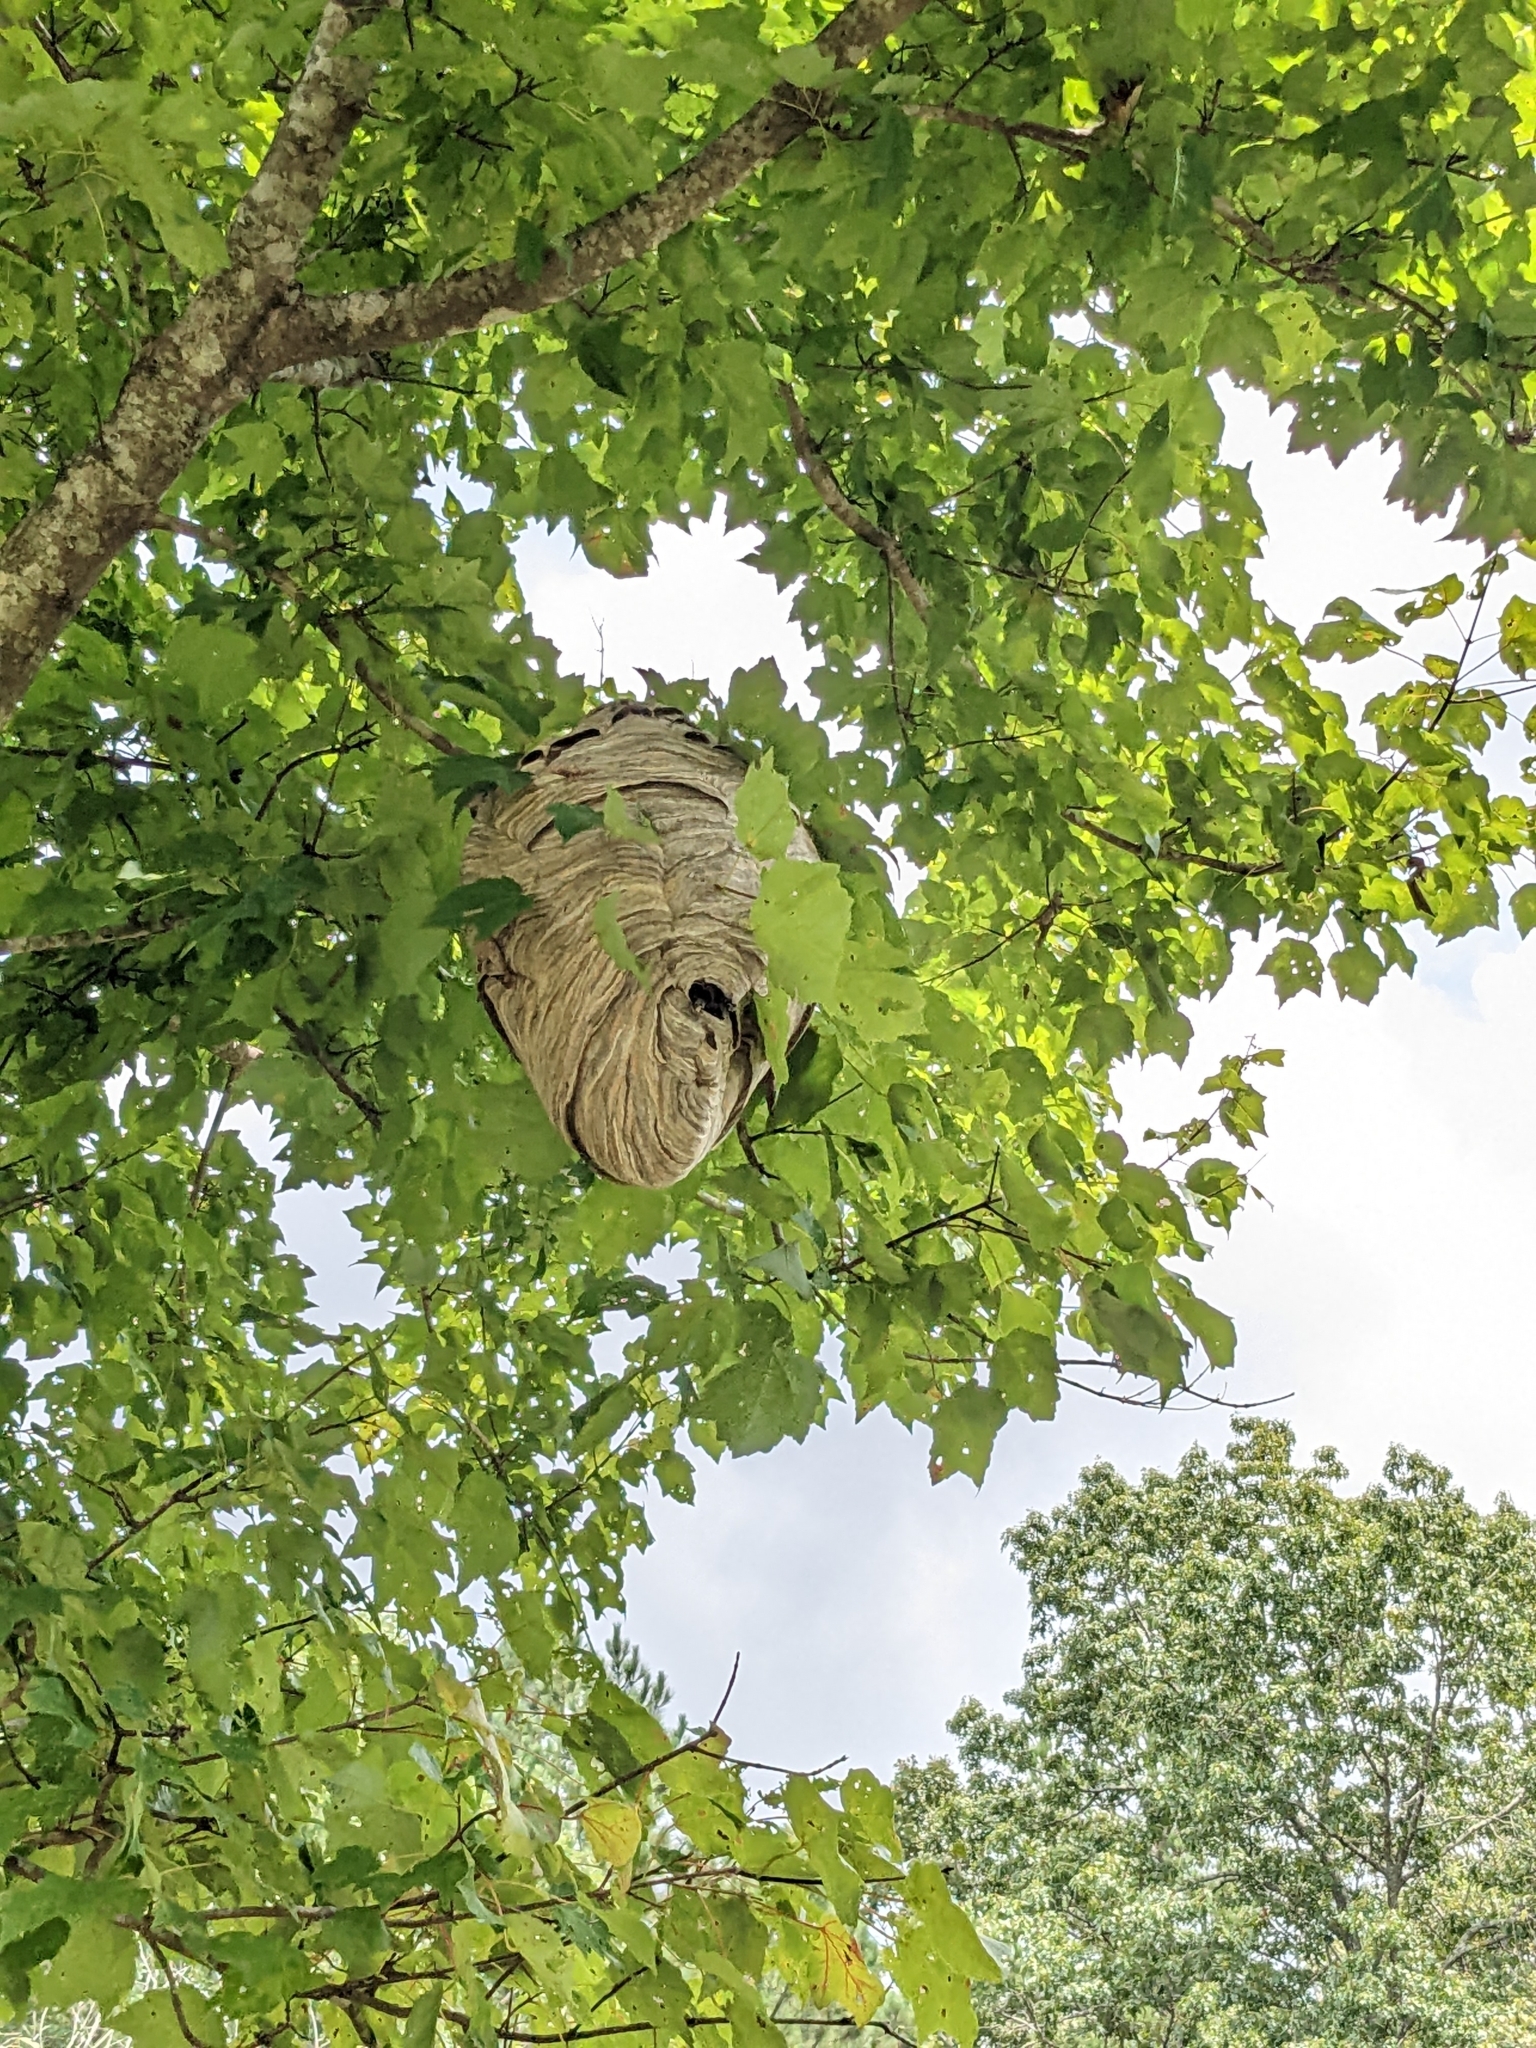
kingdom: Animalia
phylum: Arthropoda
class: Insecta
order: Hymenoptera
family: Vespidae
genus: Dolichovespula
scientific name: Dolichovespula maculata
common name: Bald-faced hornet
